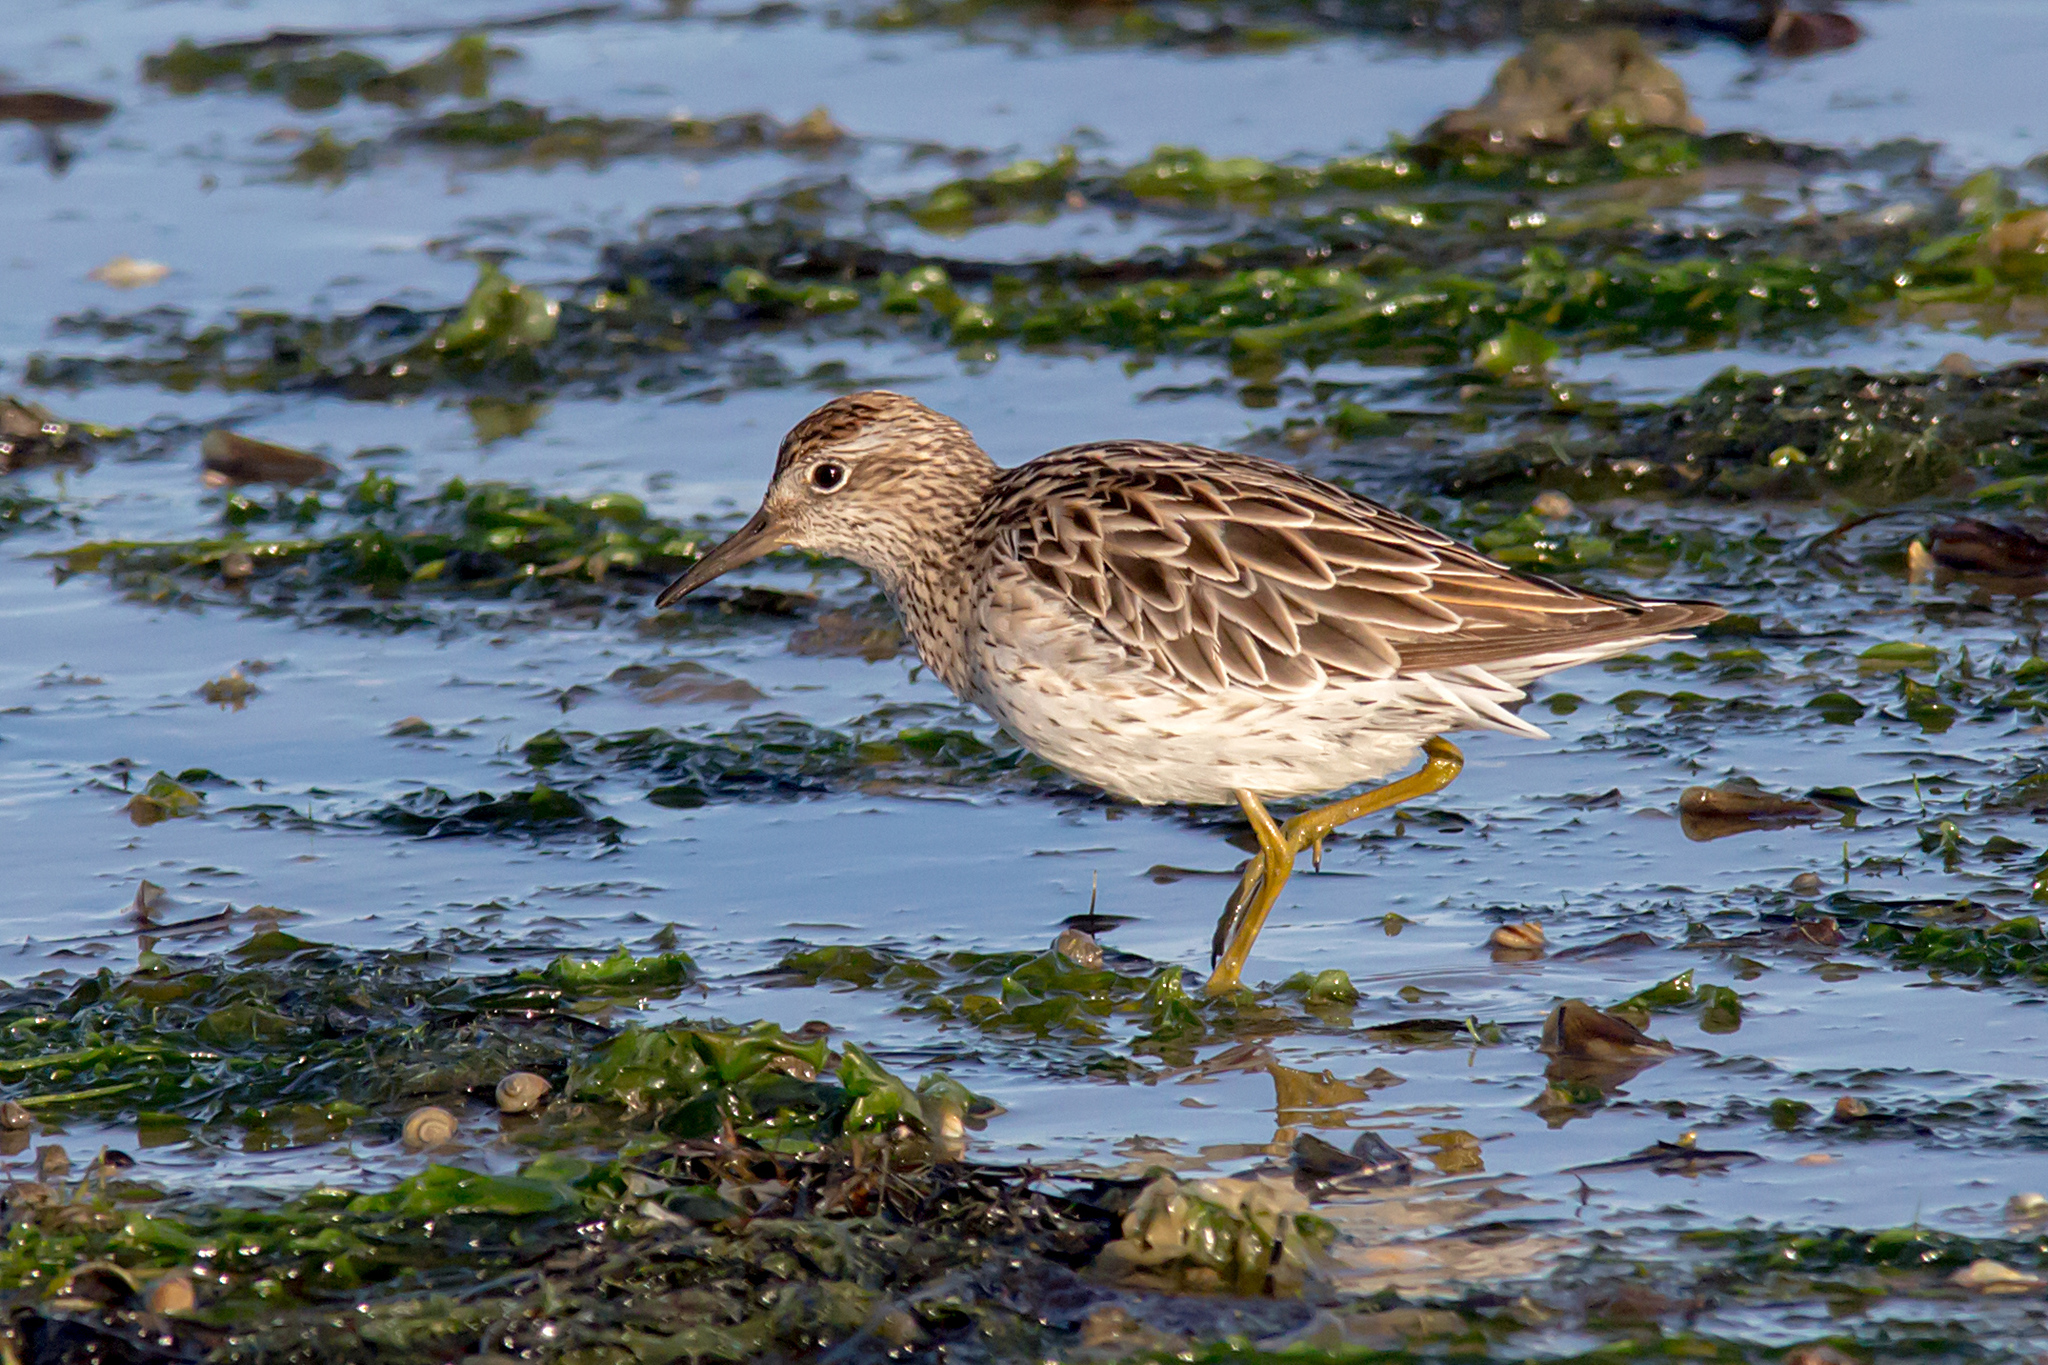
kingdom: Animalia
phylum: Chordata
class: Aves
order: Charadriiformes
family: Scolopacidae
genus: Calidris
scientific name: Calidris acuminata
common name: Sharp-tailed sandpiper
